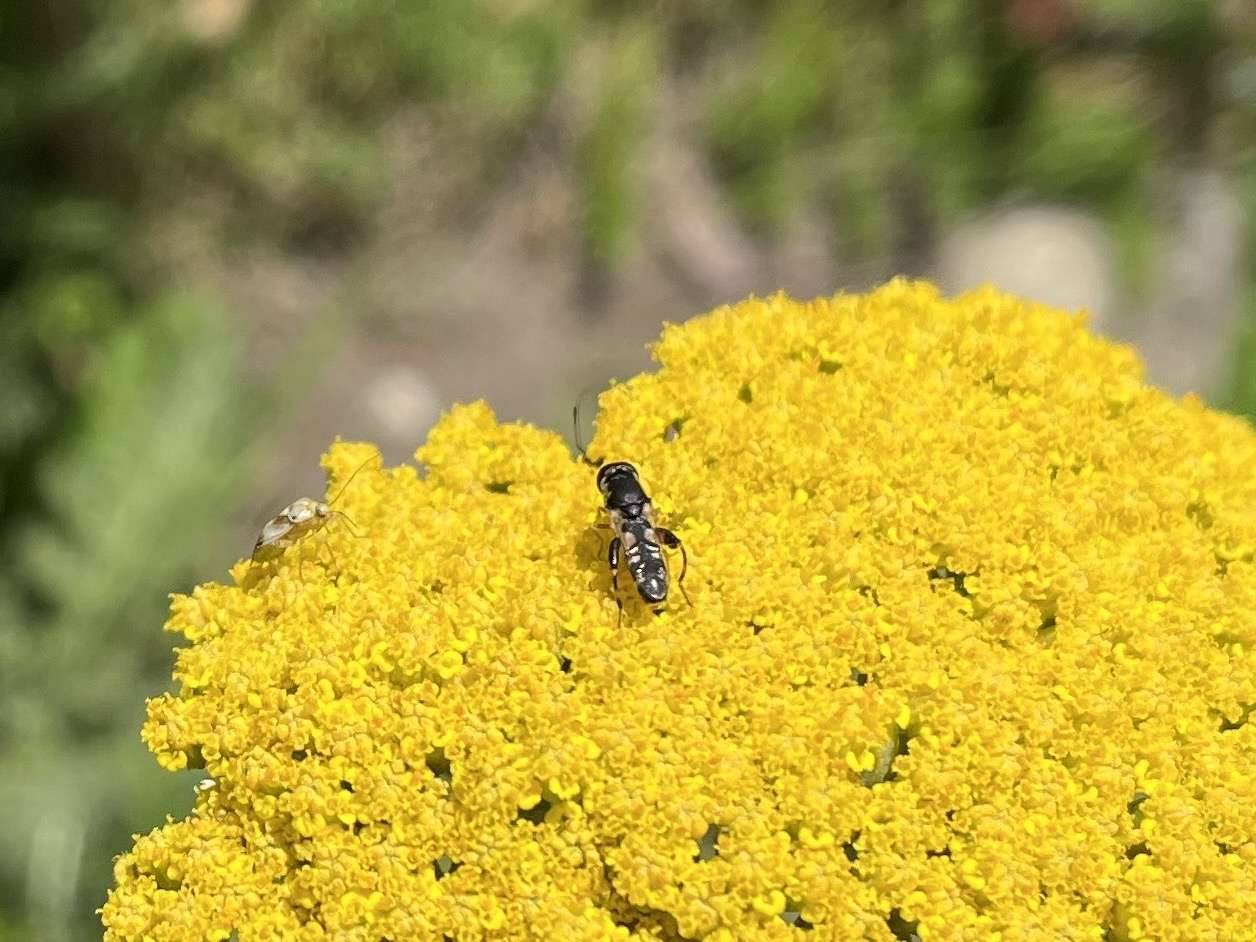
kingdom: Animalia
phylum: Arthropoda
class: Insecta
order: Diptera
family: Syrphidae
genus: Syritta
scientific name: Syritta pipiens
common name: Hover fly
